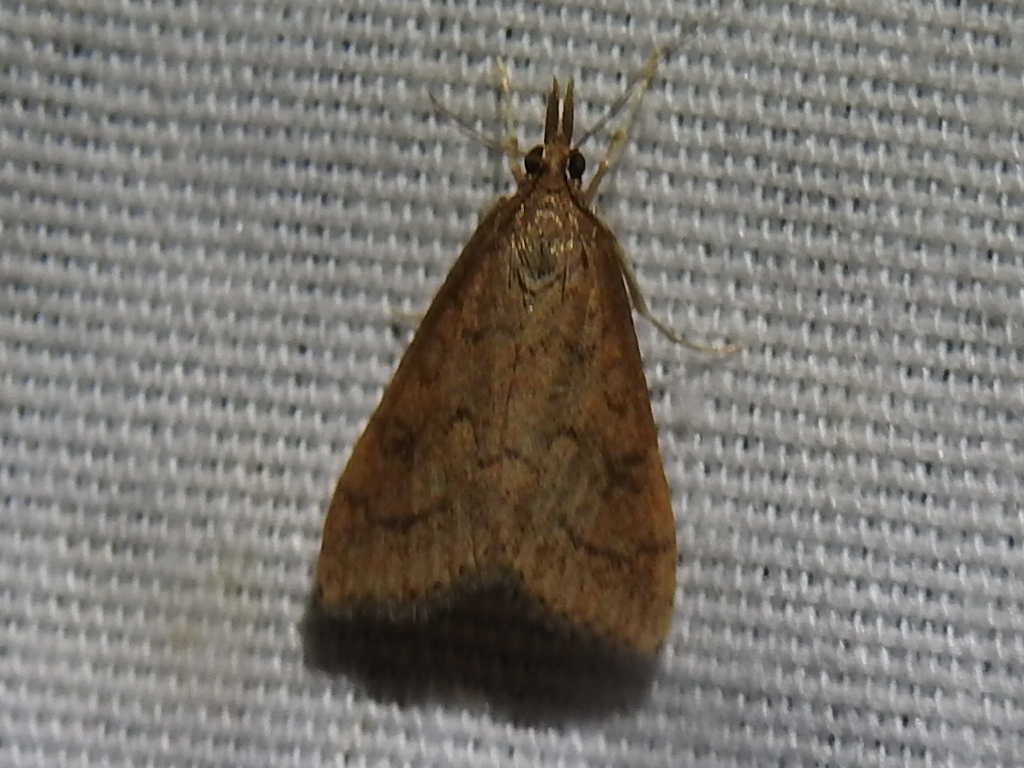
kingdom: Animalia
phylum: Arthropoda
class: Insecta
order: Lepidoptera
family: Crambidae
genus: Udea
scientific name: Udea rubigalis
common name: Celery leaftier moth
